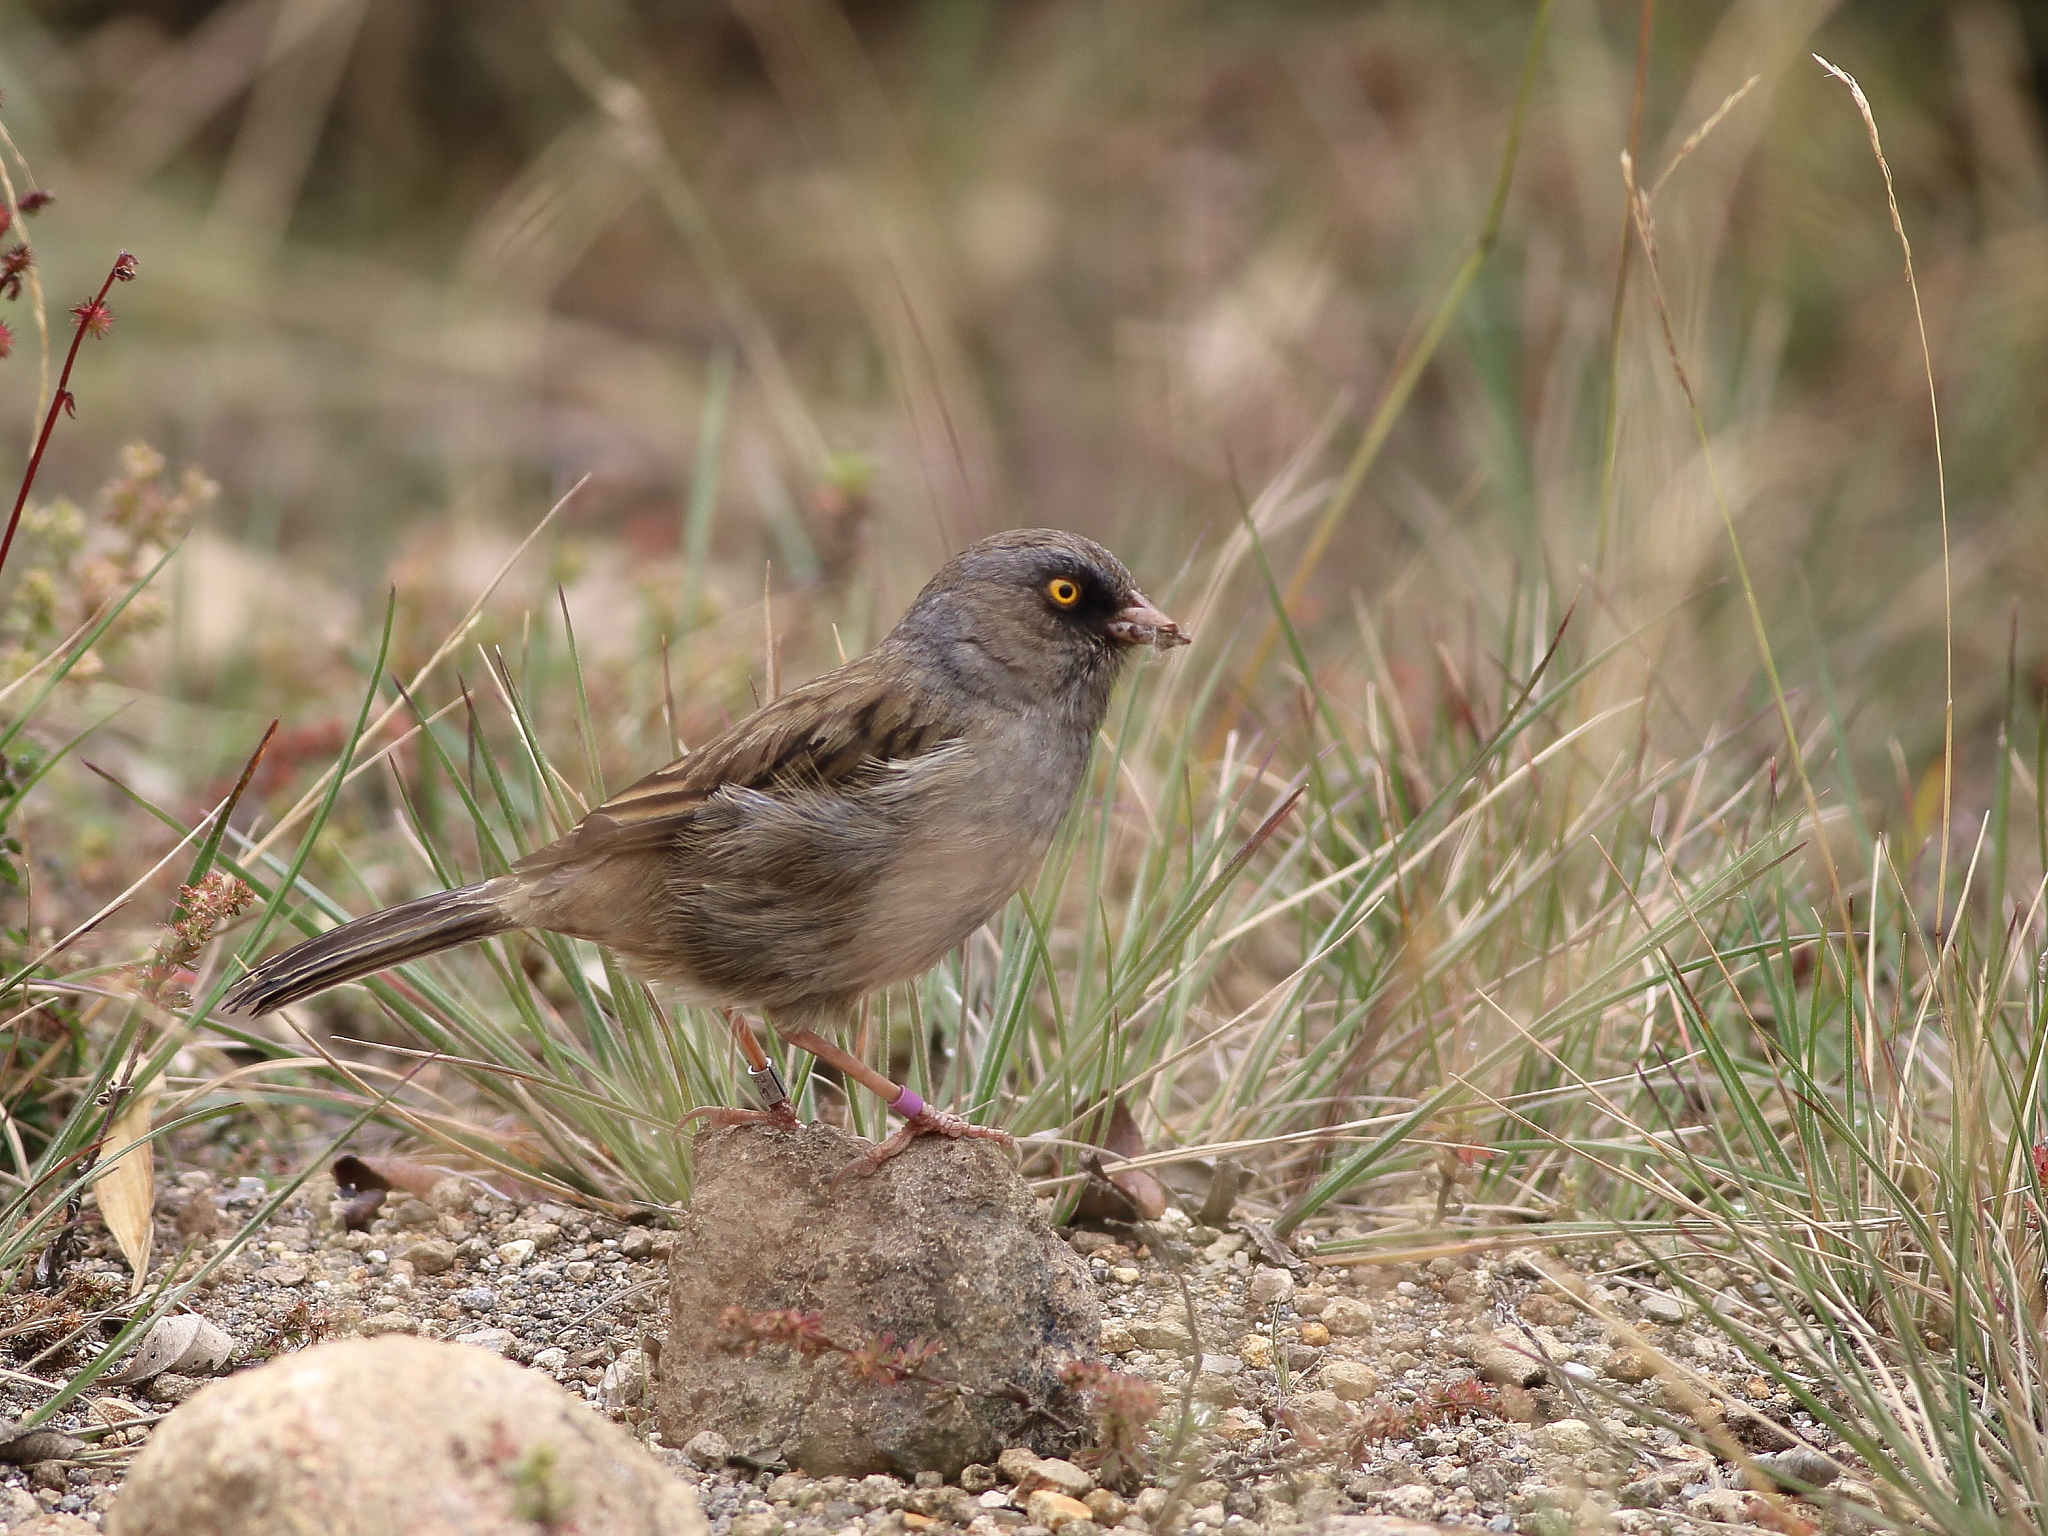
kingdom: Animalia
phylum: Chordata
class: Aves
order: Passeriformes
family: Passerellidae
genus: Junco
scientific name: Junco vulcani
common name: Volcano junco
